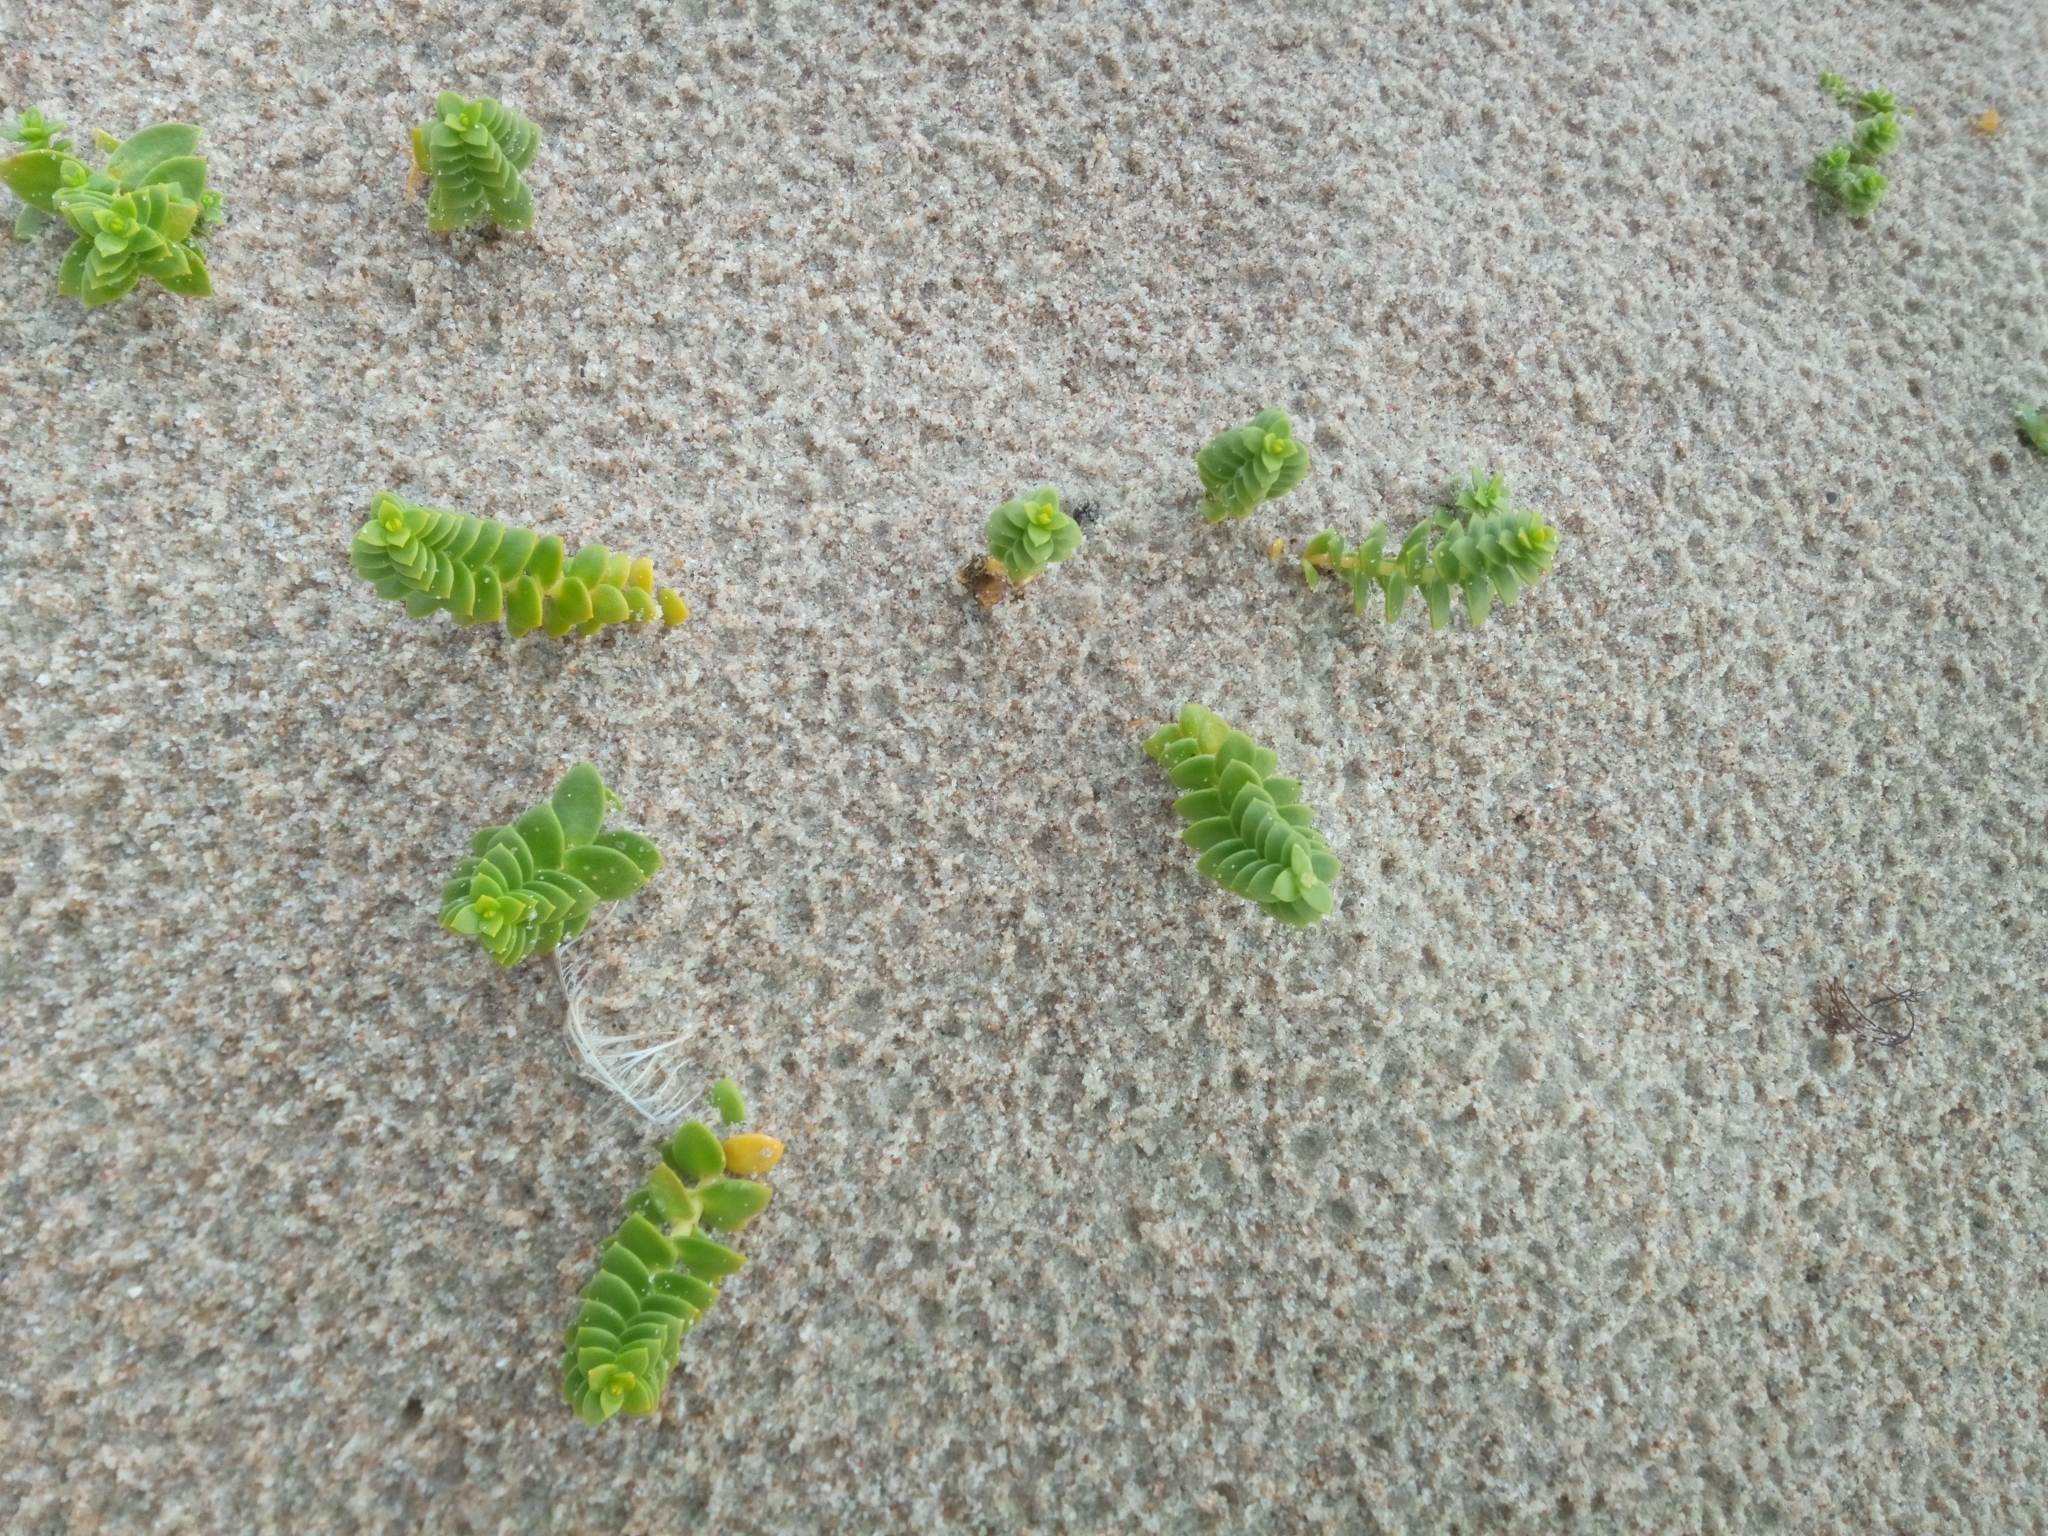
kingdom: Plantae
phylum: Tracheophyta
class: Magnoliopsida
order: Caryophyllales
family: Caryophyllaceae
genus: Honckenya
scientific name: Honckenya peploides
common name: Sea sandwort
